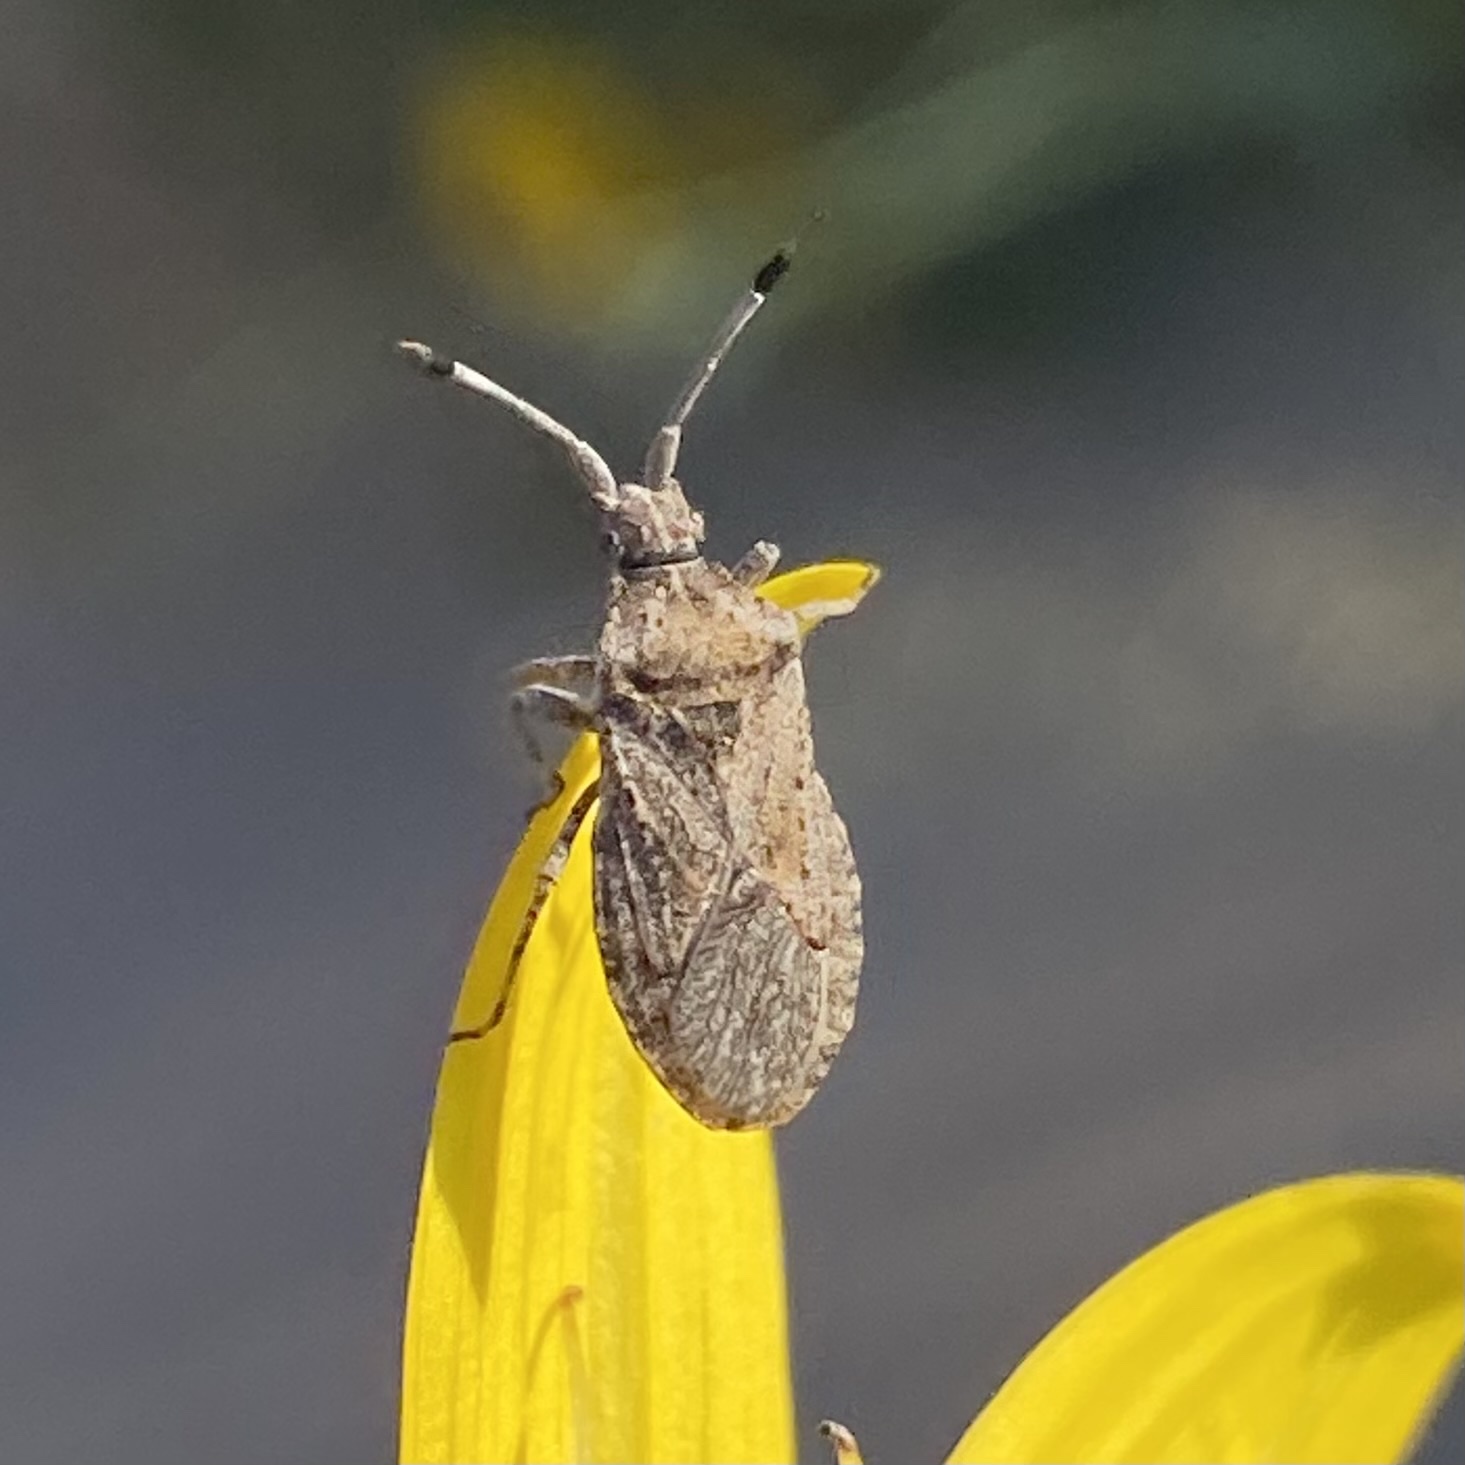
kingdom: Animalia
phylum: Arthropoda
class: Insecta
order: Hemiptera
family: Coreidae
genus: Scolopocerus
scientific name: Scolopocerus
